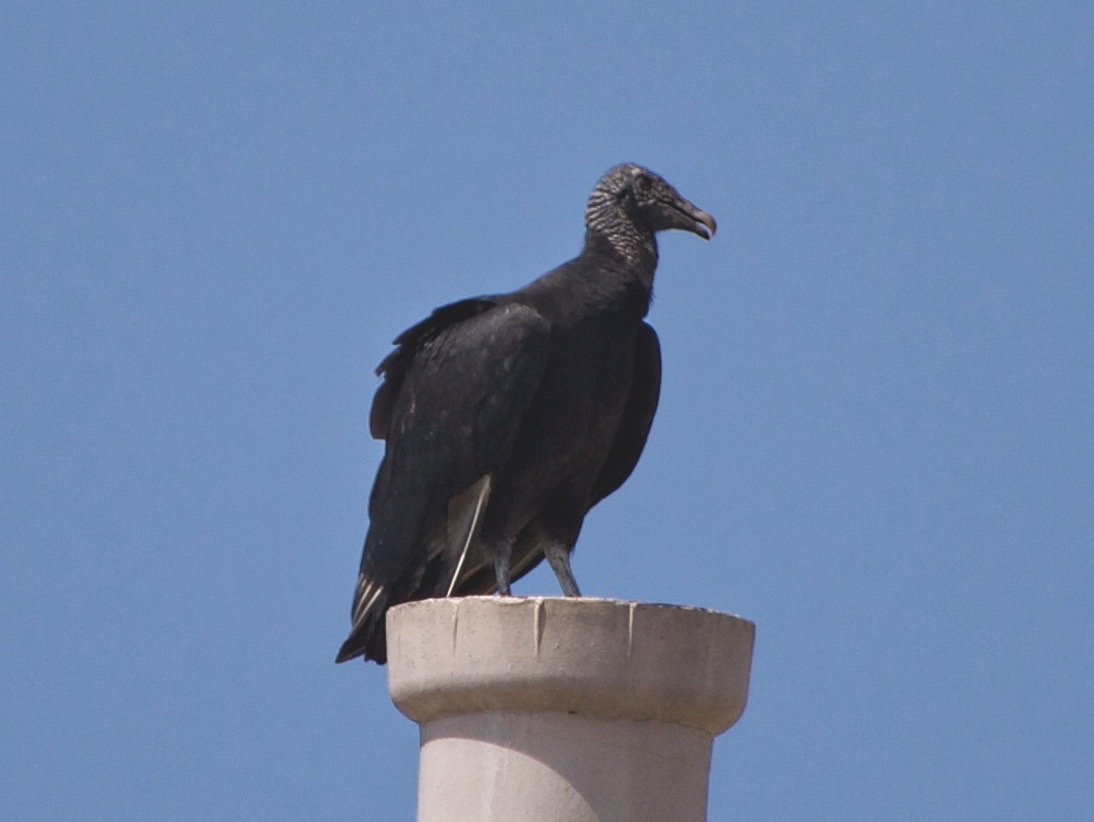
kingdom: Animalia
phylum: Chordata
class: Aves
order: Accipitriformes
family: Cathartidae
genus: Coragyps
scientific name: Coragyps atratus
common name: Black vulture
